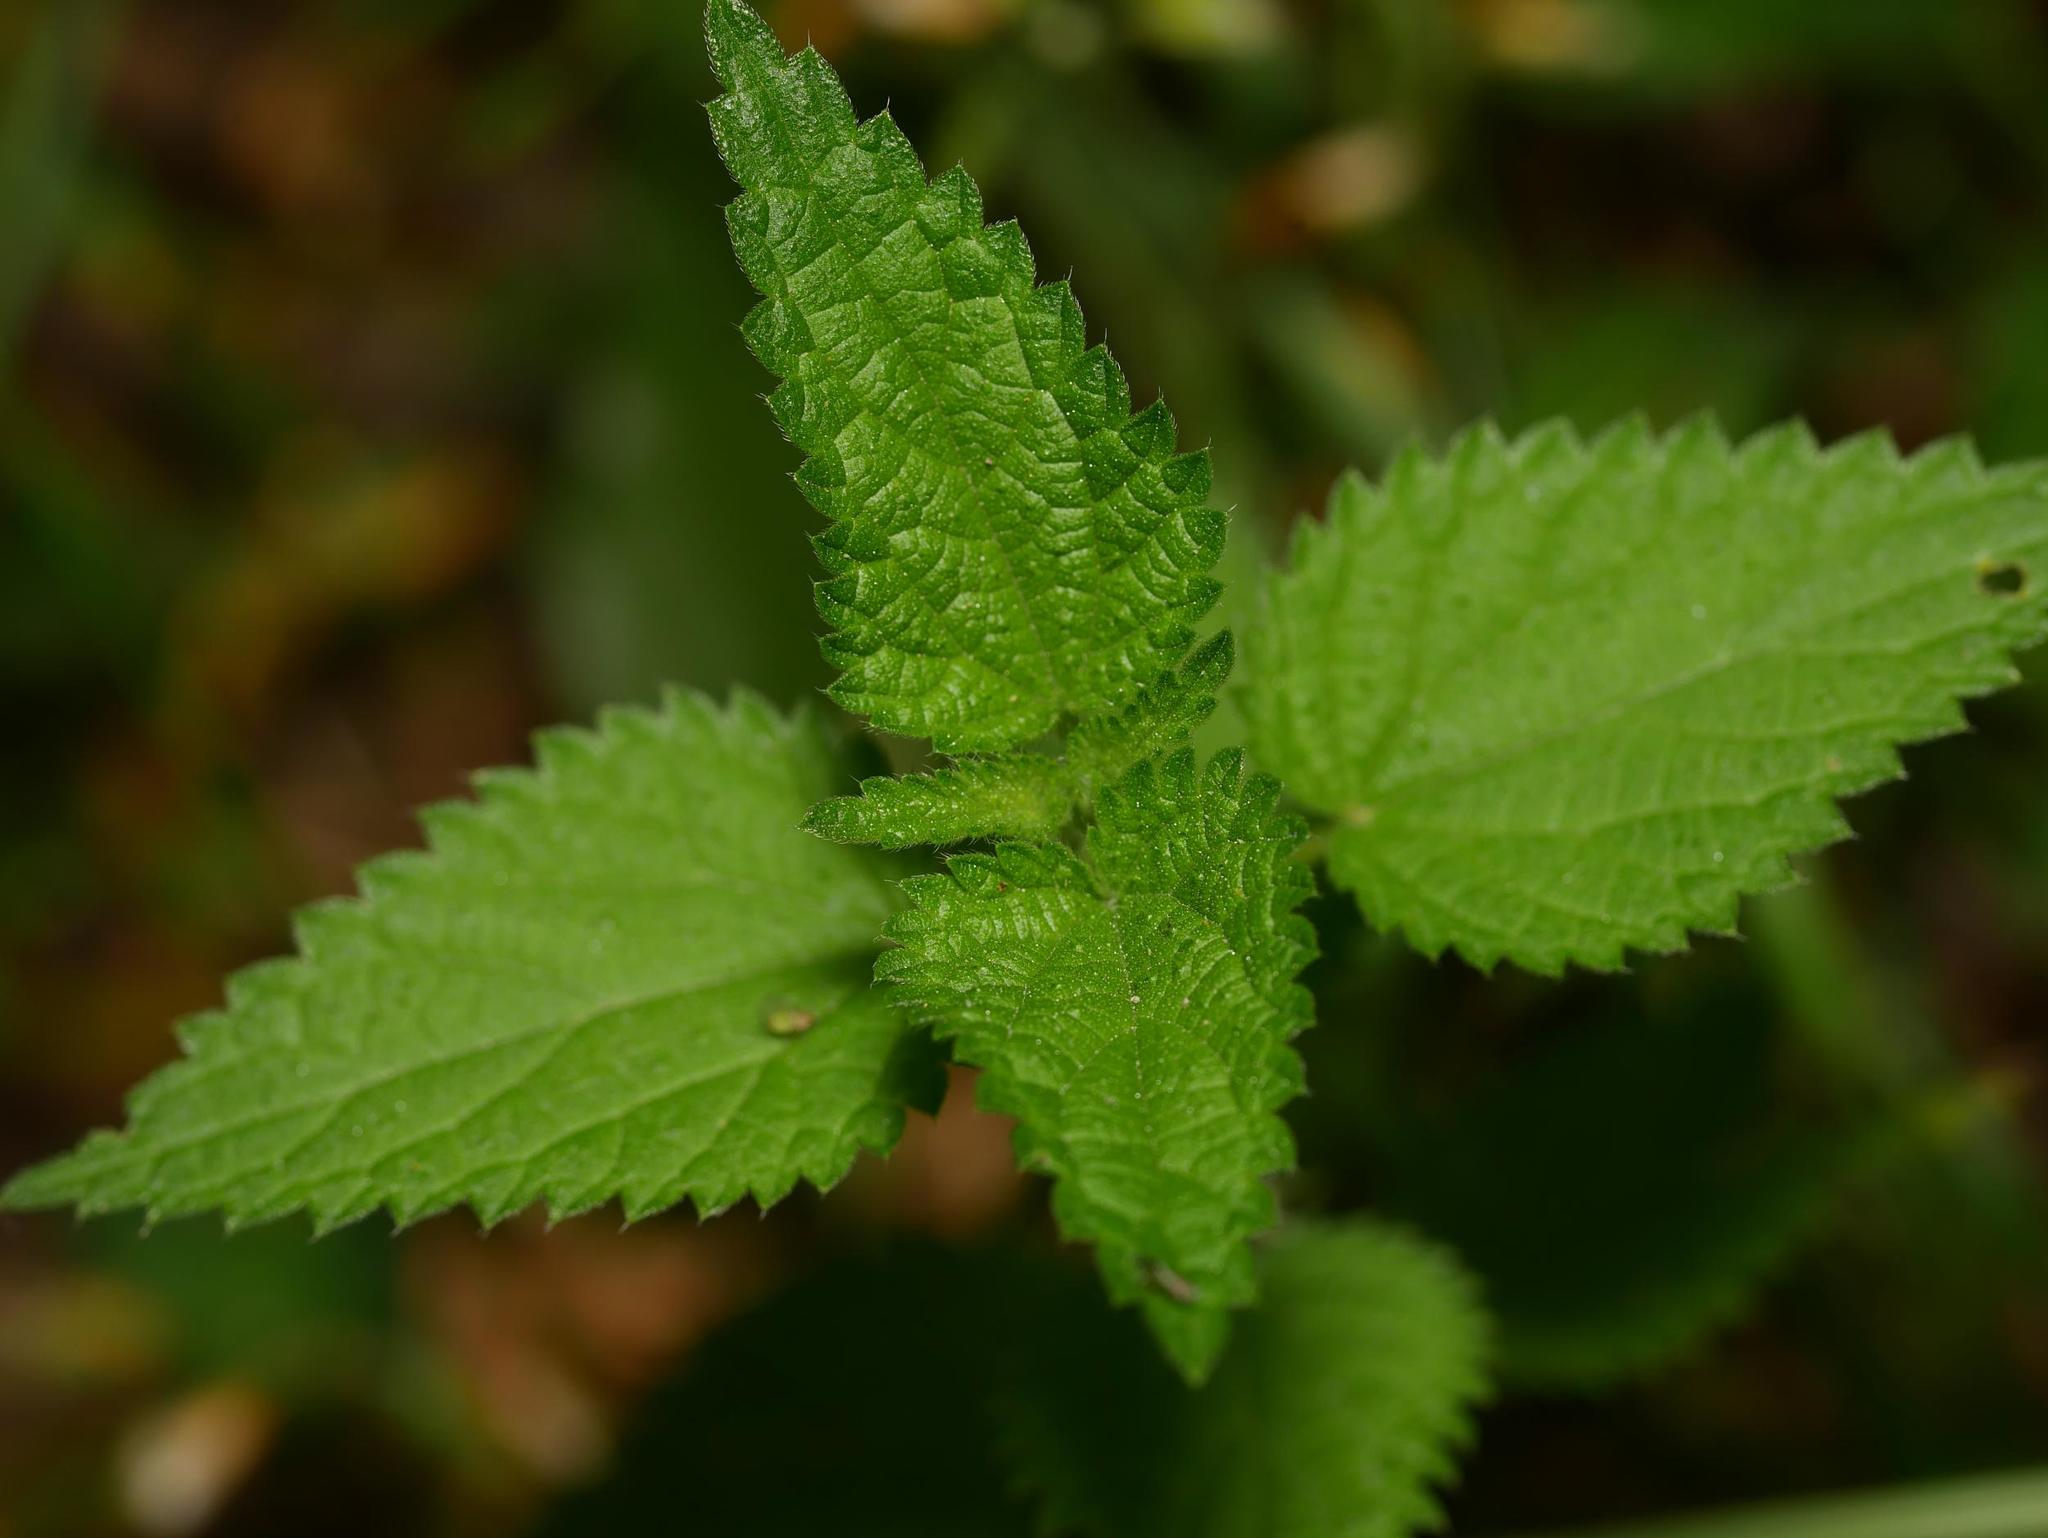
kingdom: Plantae
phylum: Tracheophyta
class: Magnoliopsida
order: Rosales
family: Urticaceae
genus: Urtica
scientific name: Urtica dioica
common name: Common nettle
